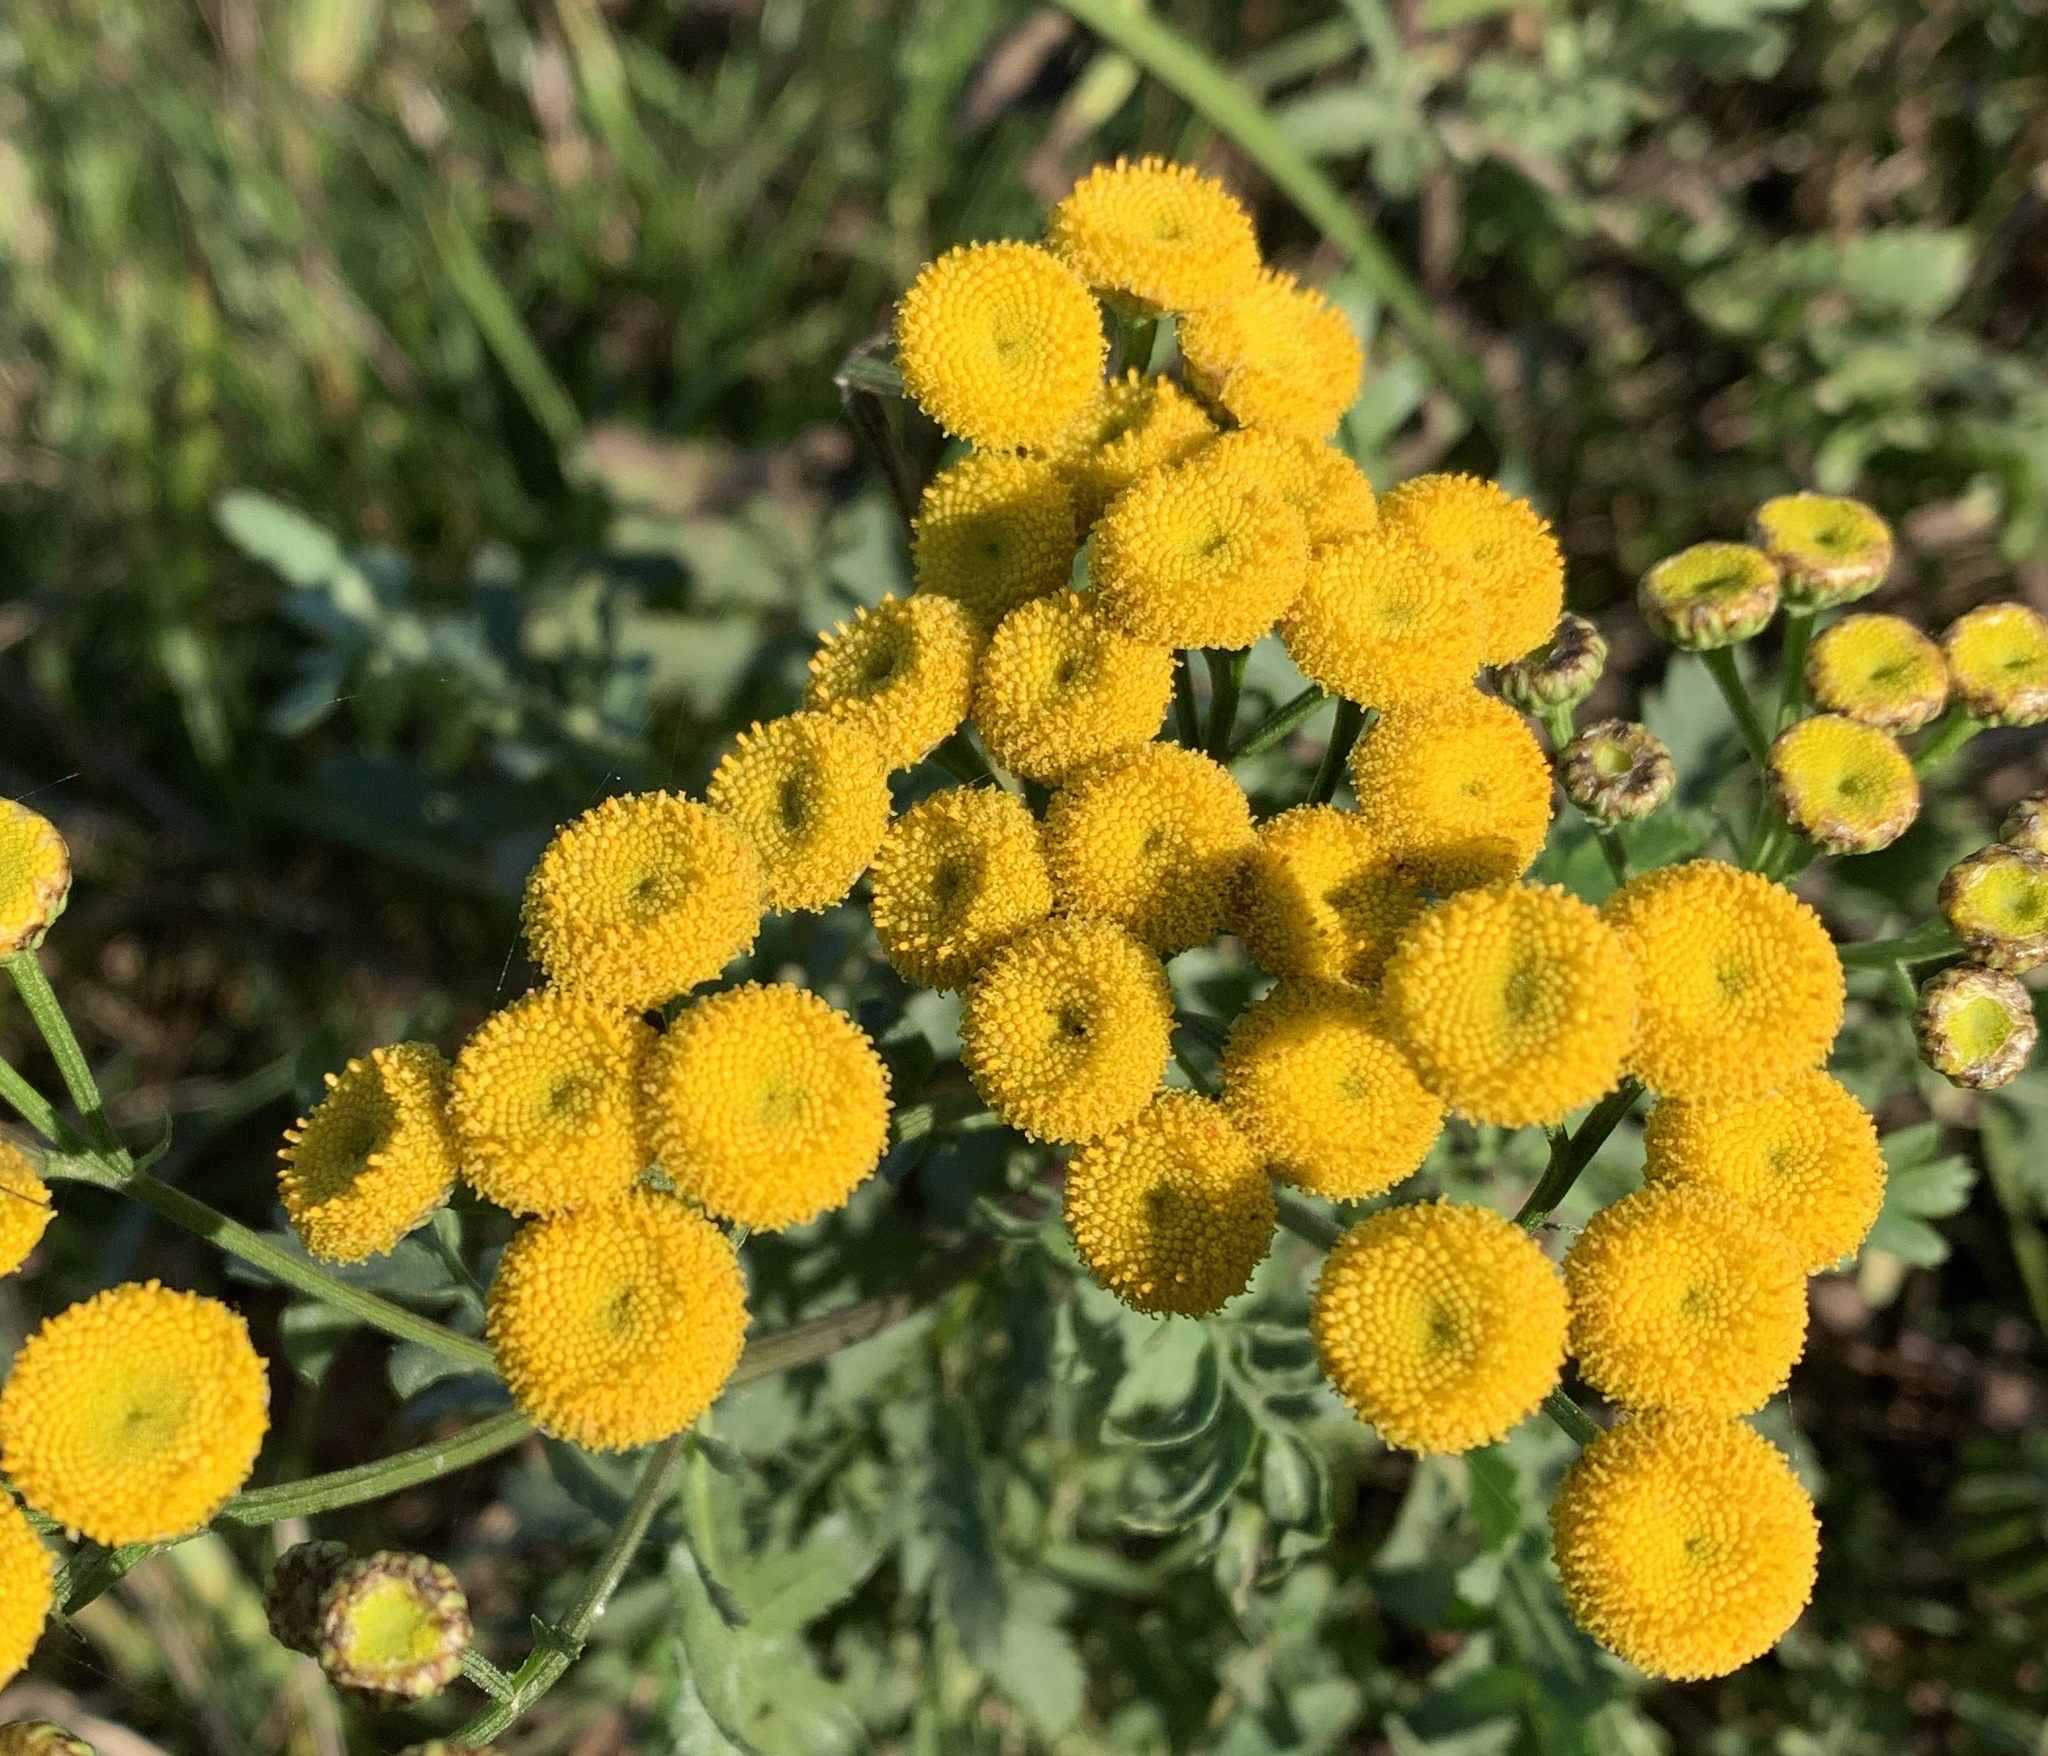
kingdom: Plantae
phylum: Tracheophyta
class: Magnoliopsida
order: Asterales
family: Asteraceae
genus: Tanacetum
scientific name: Tanacetum vulgare
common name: Common tansy
